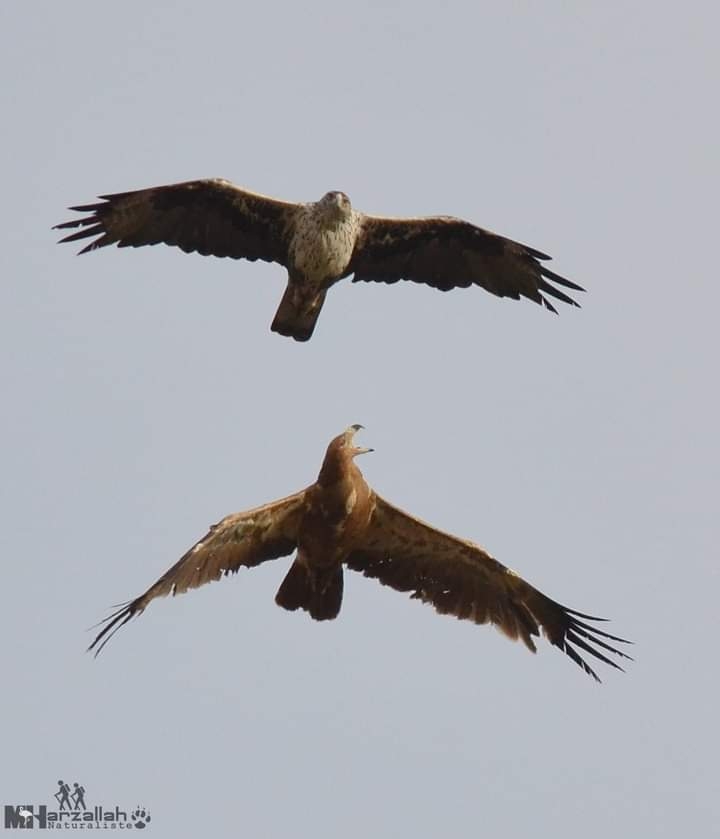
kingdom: Animalia
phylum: Chordata
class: Aves
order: Accipitriformes
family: Accipitridae
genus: Aquila
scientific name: Aquila rapax
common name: Tawny eagle
